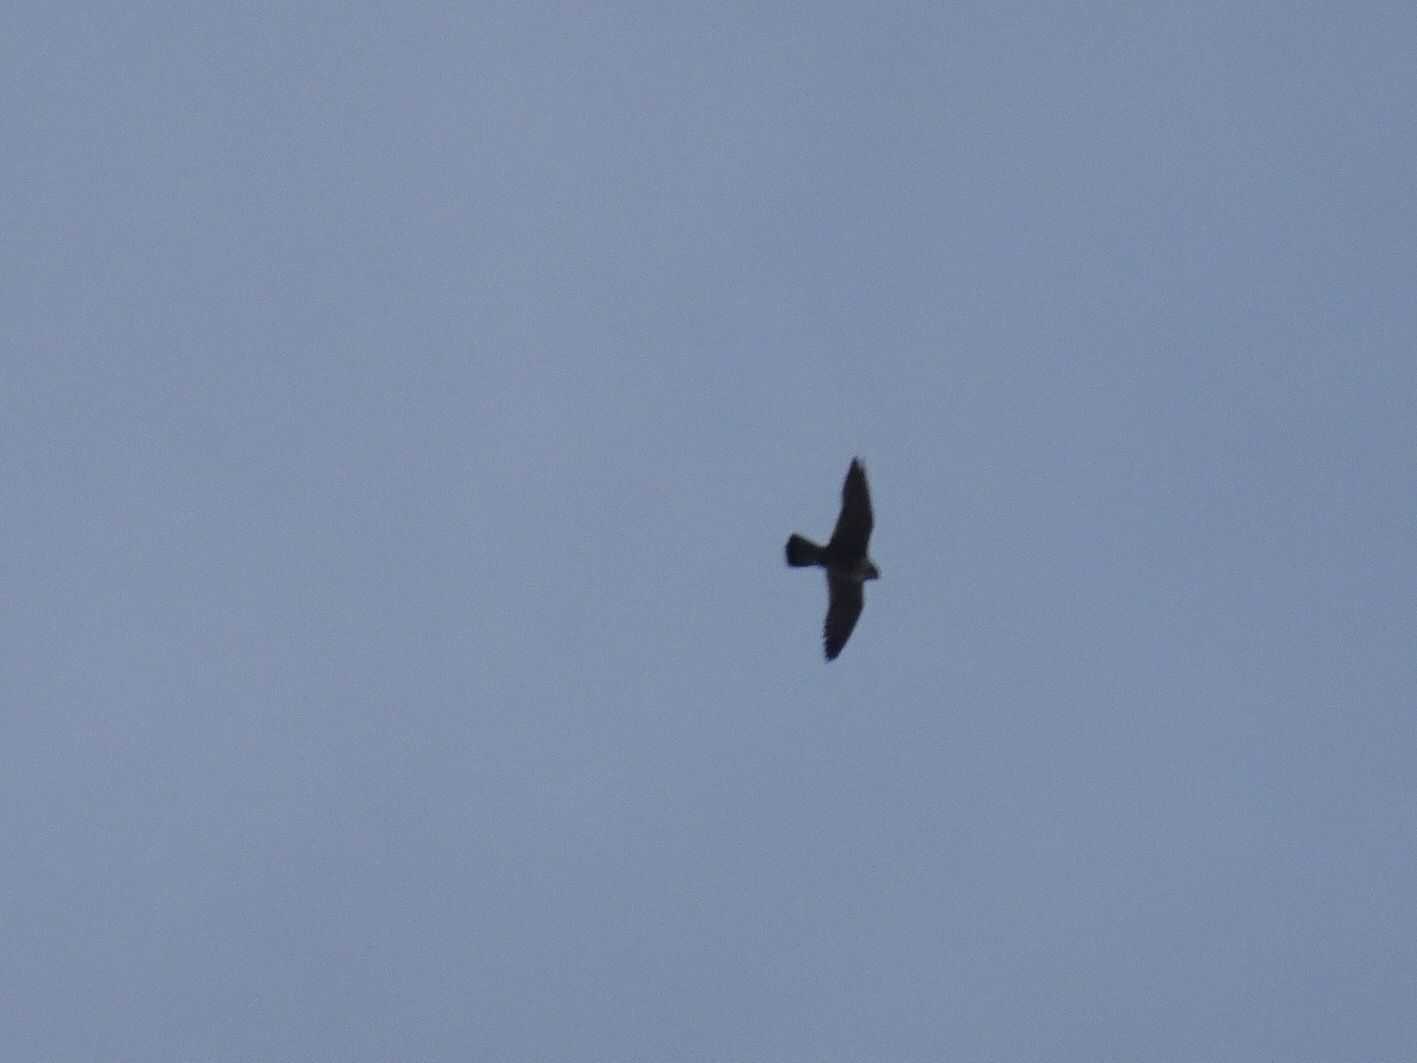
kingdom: Animalia
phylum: Chordata
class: Aves
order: Falconiformes
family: Falconidae
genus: Falco
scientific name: Falco peregrinus
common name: Peregrine falcon
